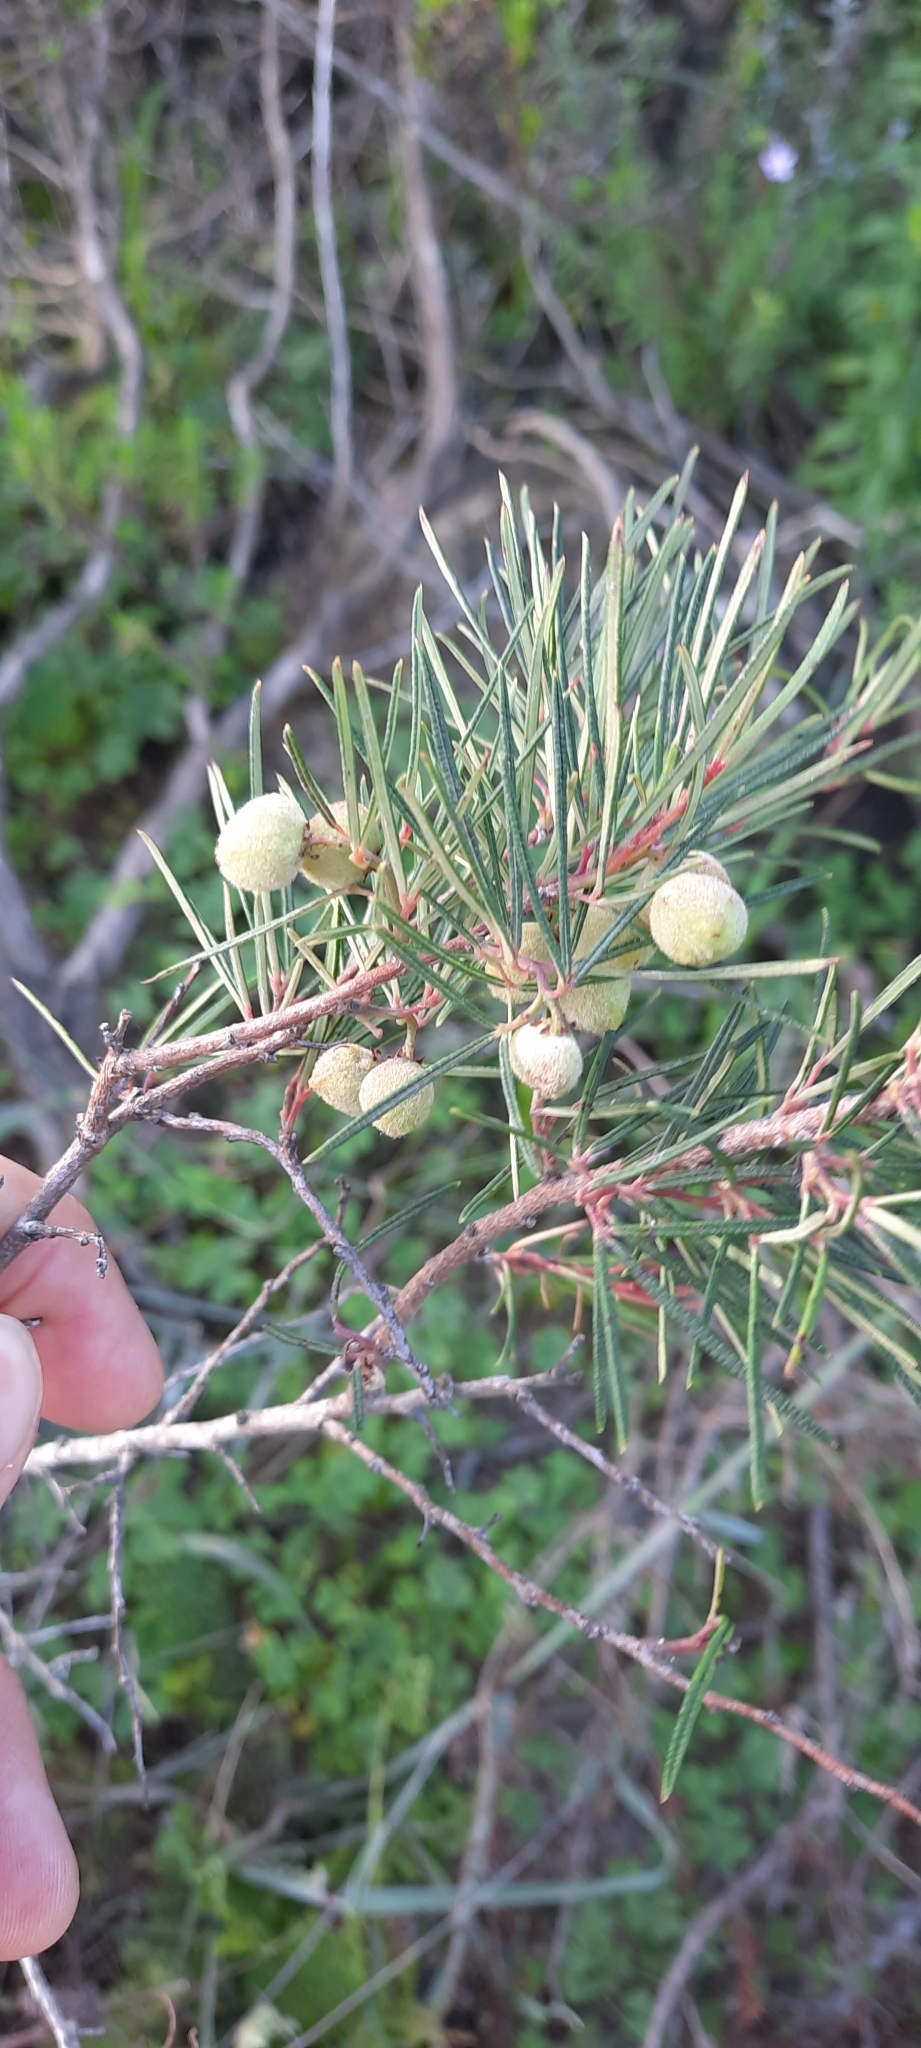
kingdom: Plantae
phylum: Tracheophyta
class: Magnoliopsida
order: Sapindales
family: Anacardiaceae
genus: Searsia
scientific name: Searsia rosmarinifolia
